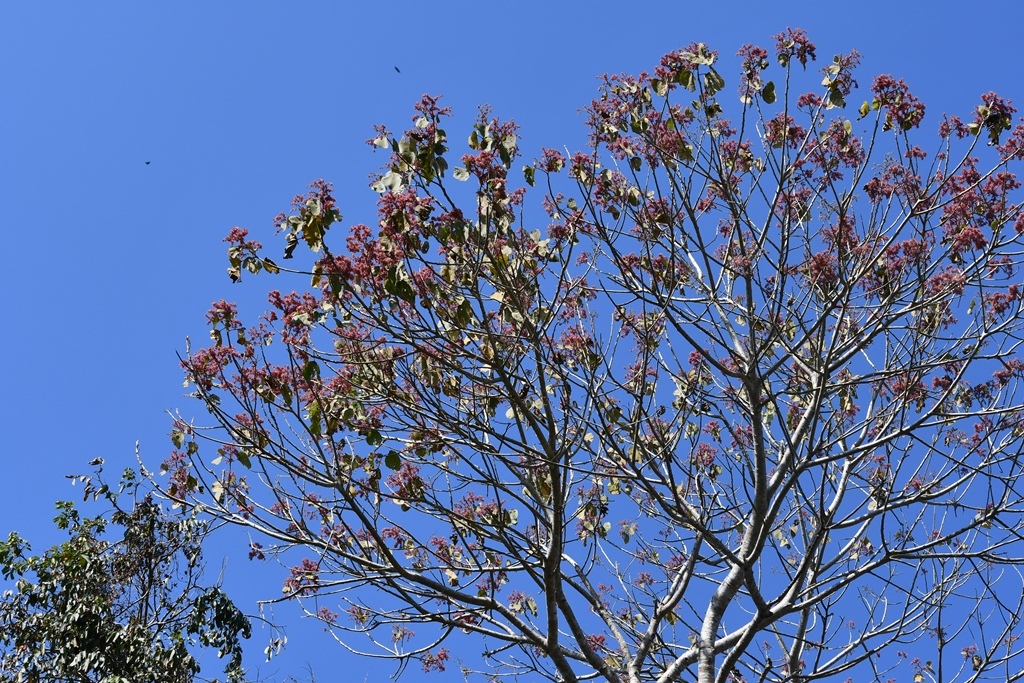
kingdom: Plantae
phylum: Tracheophyta
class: Magnoliopsida
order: Malvales
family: Malvaceae
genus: Heliocarpus
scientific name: Heliocarpus terebinthinaceus
